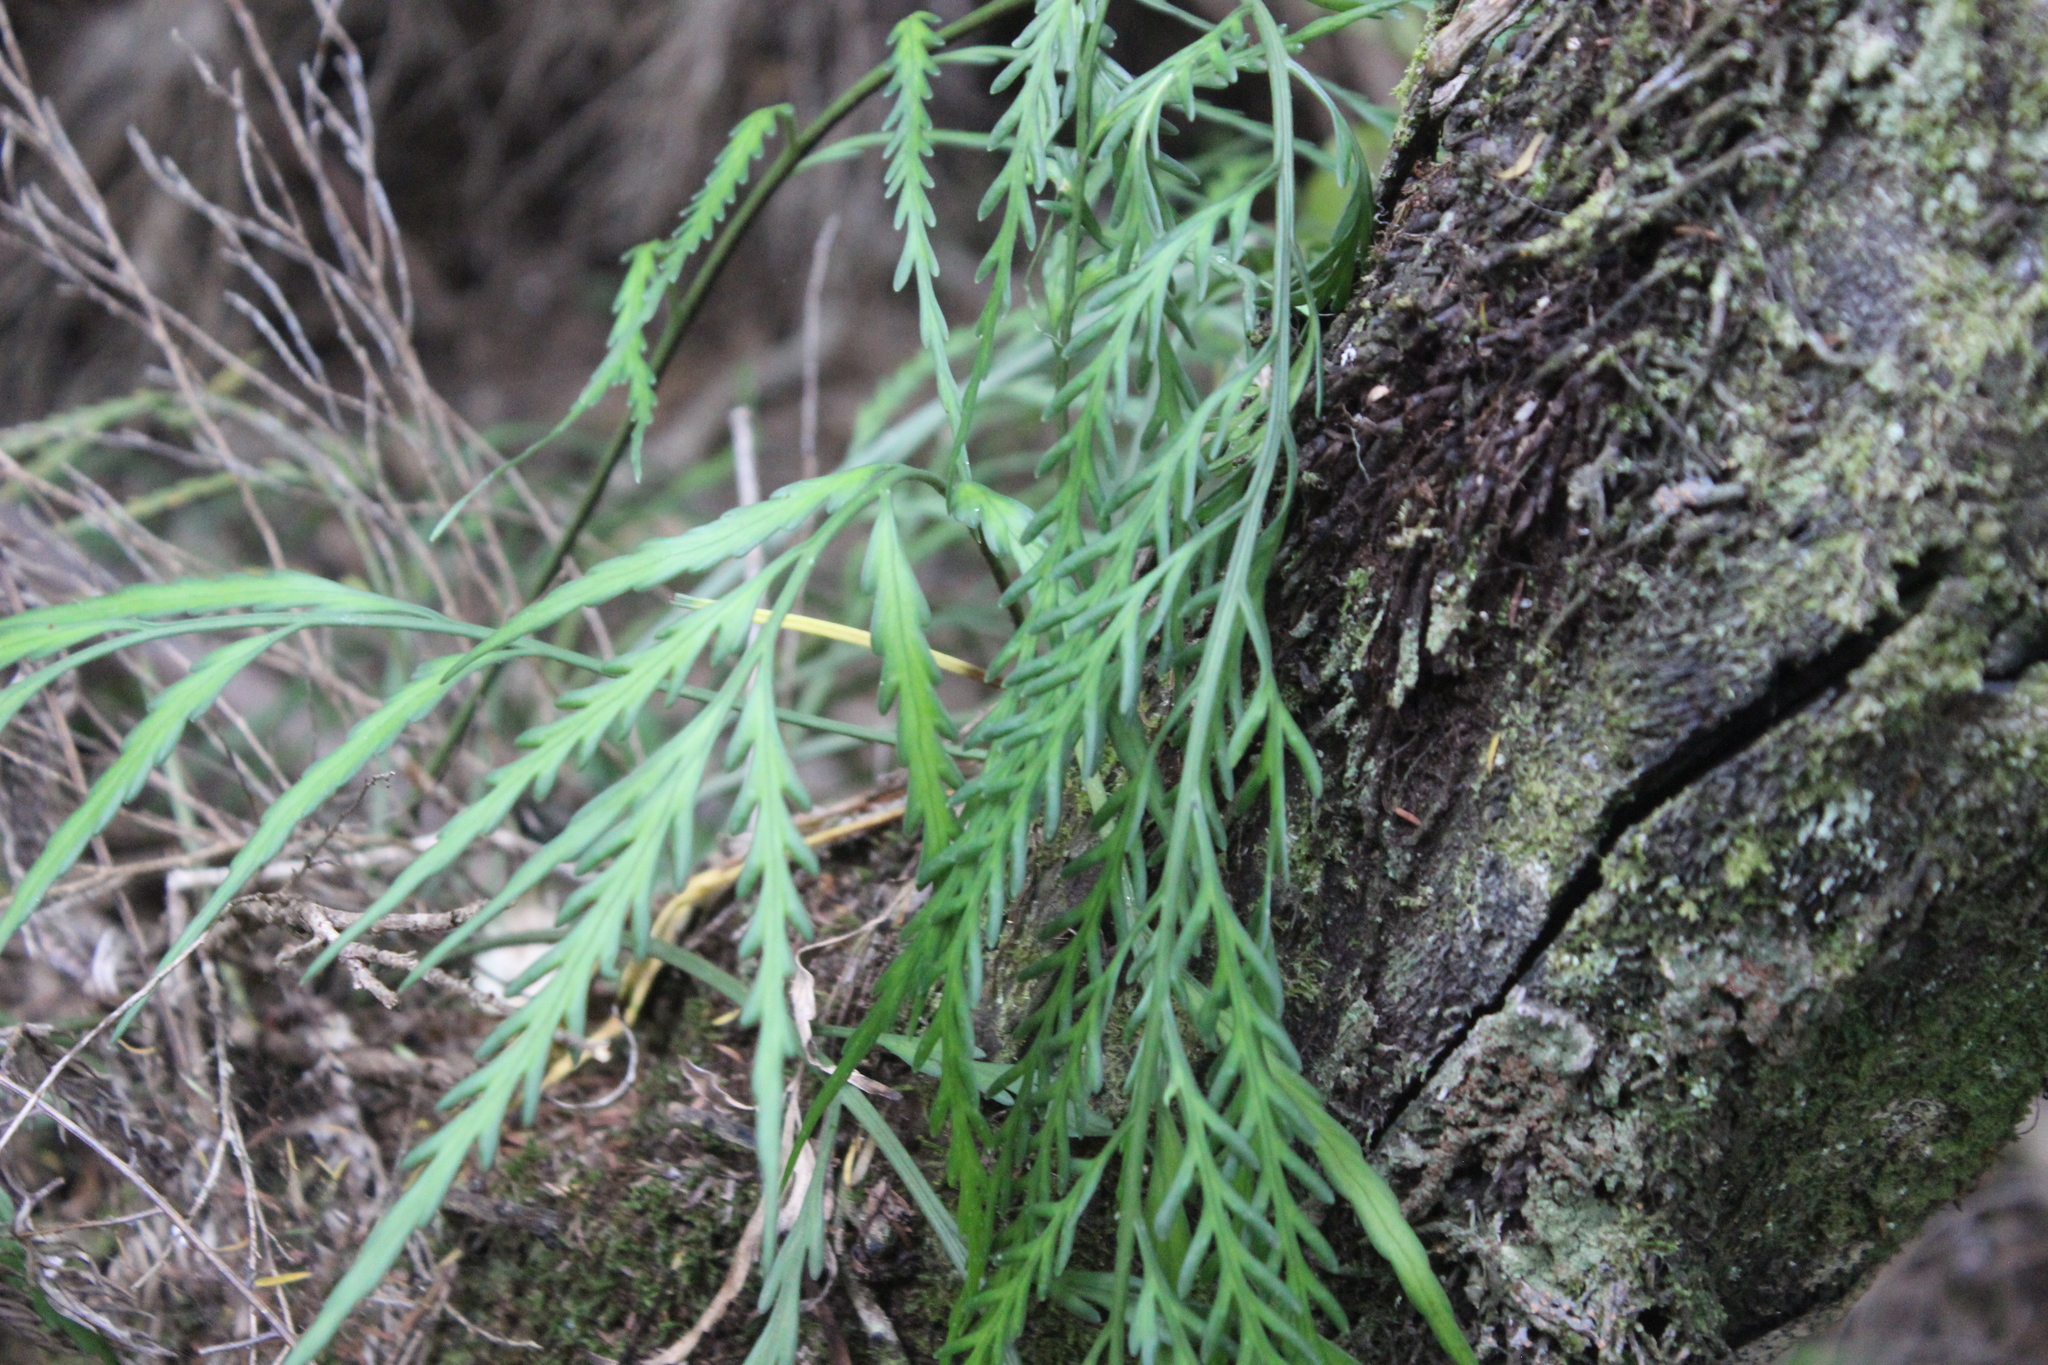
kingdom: Plantae
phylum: Tracheophyta
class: Polypodiopsida
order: Polypodiales
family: Aspleniaceae
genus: Asplenium
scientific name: Asplenium flaccidum
